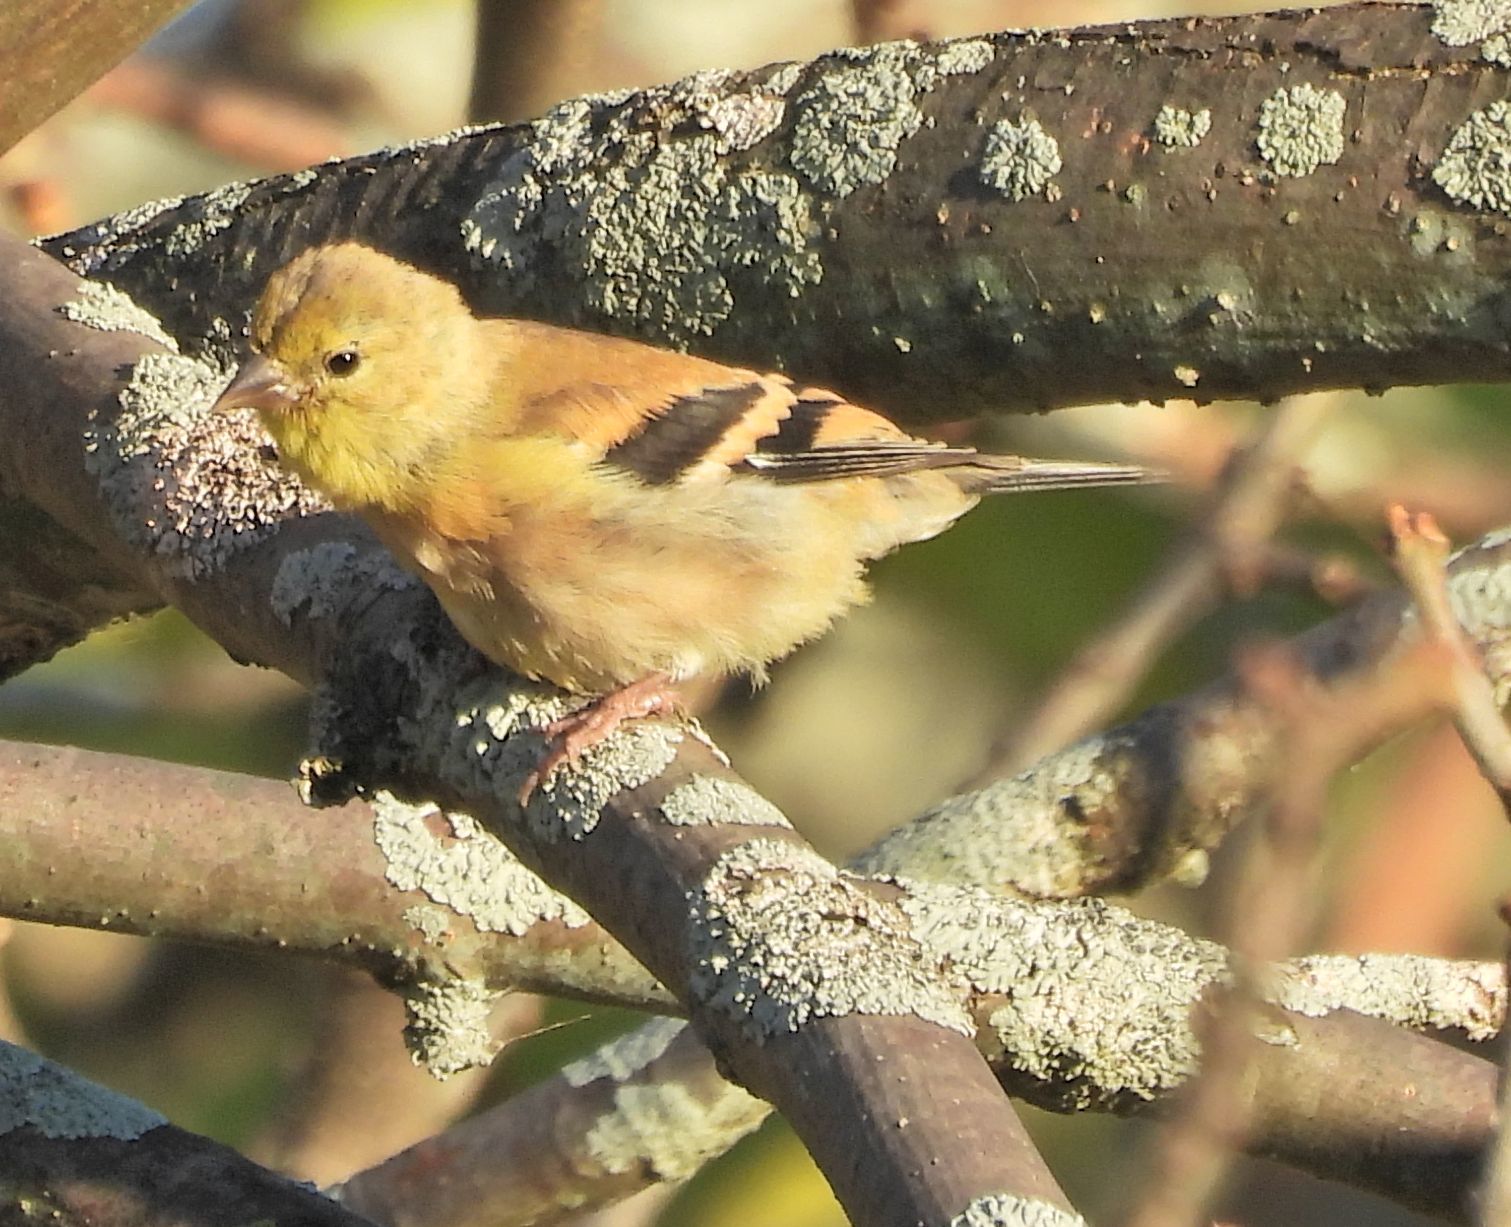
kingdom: Animalia
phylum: Chordata
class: Aves
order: Passeriformes
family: Fringillidae
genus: Spinus
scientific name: Spinus tristis
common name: American goldfinch
